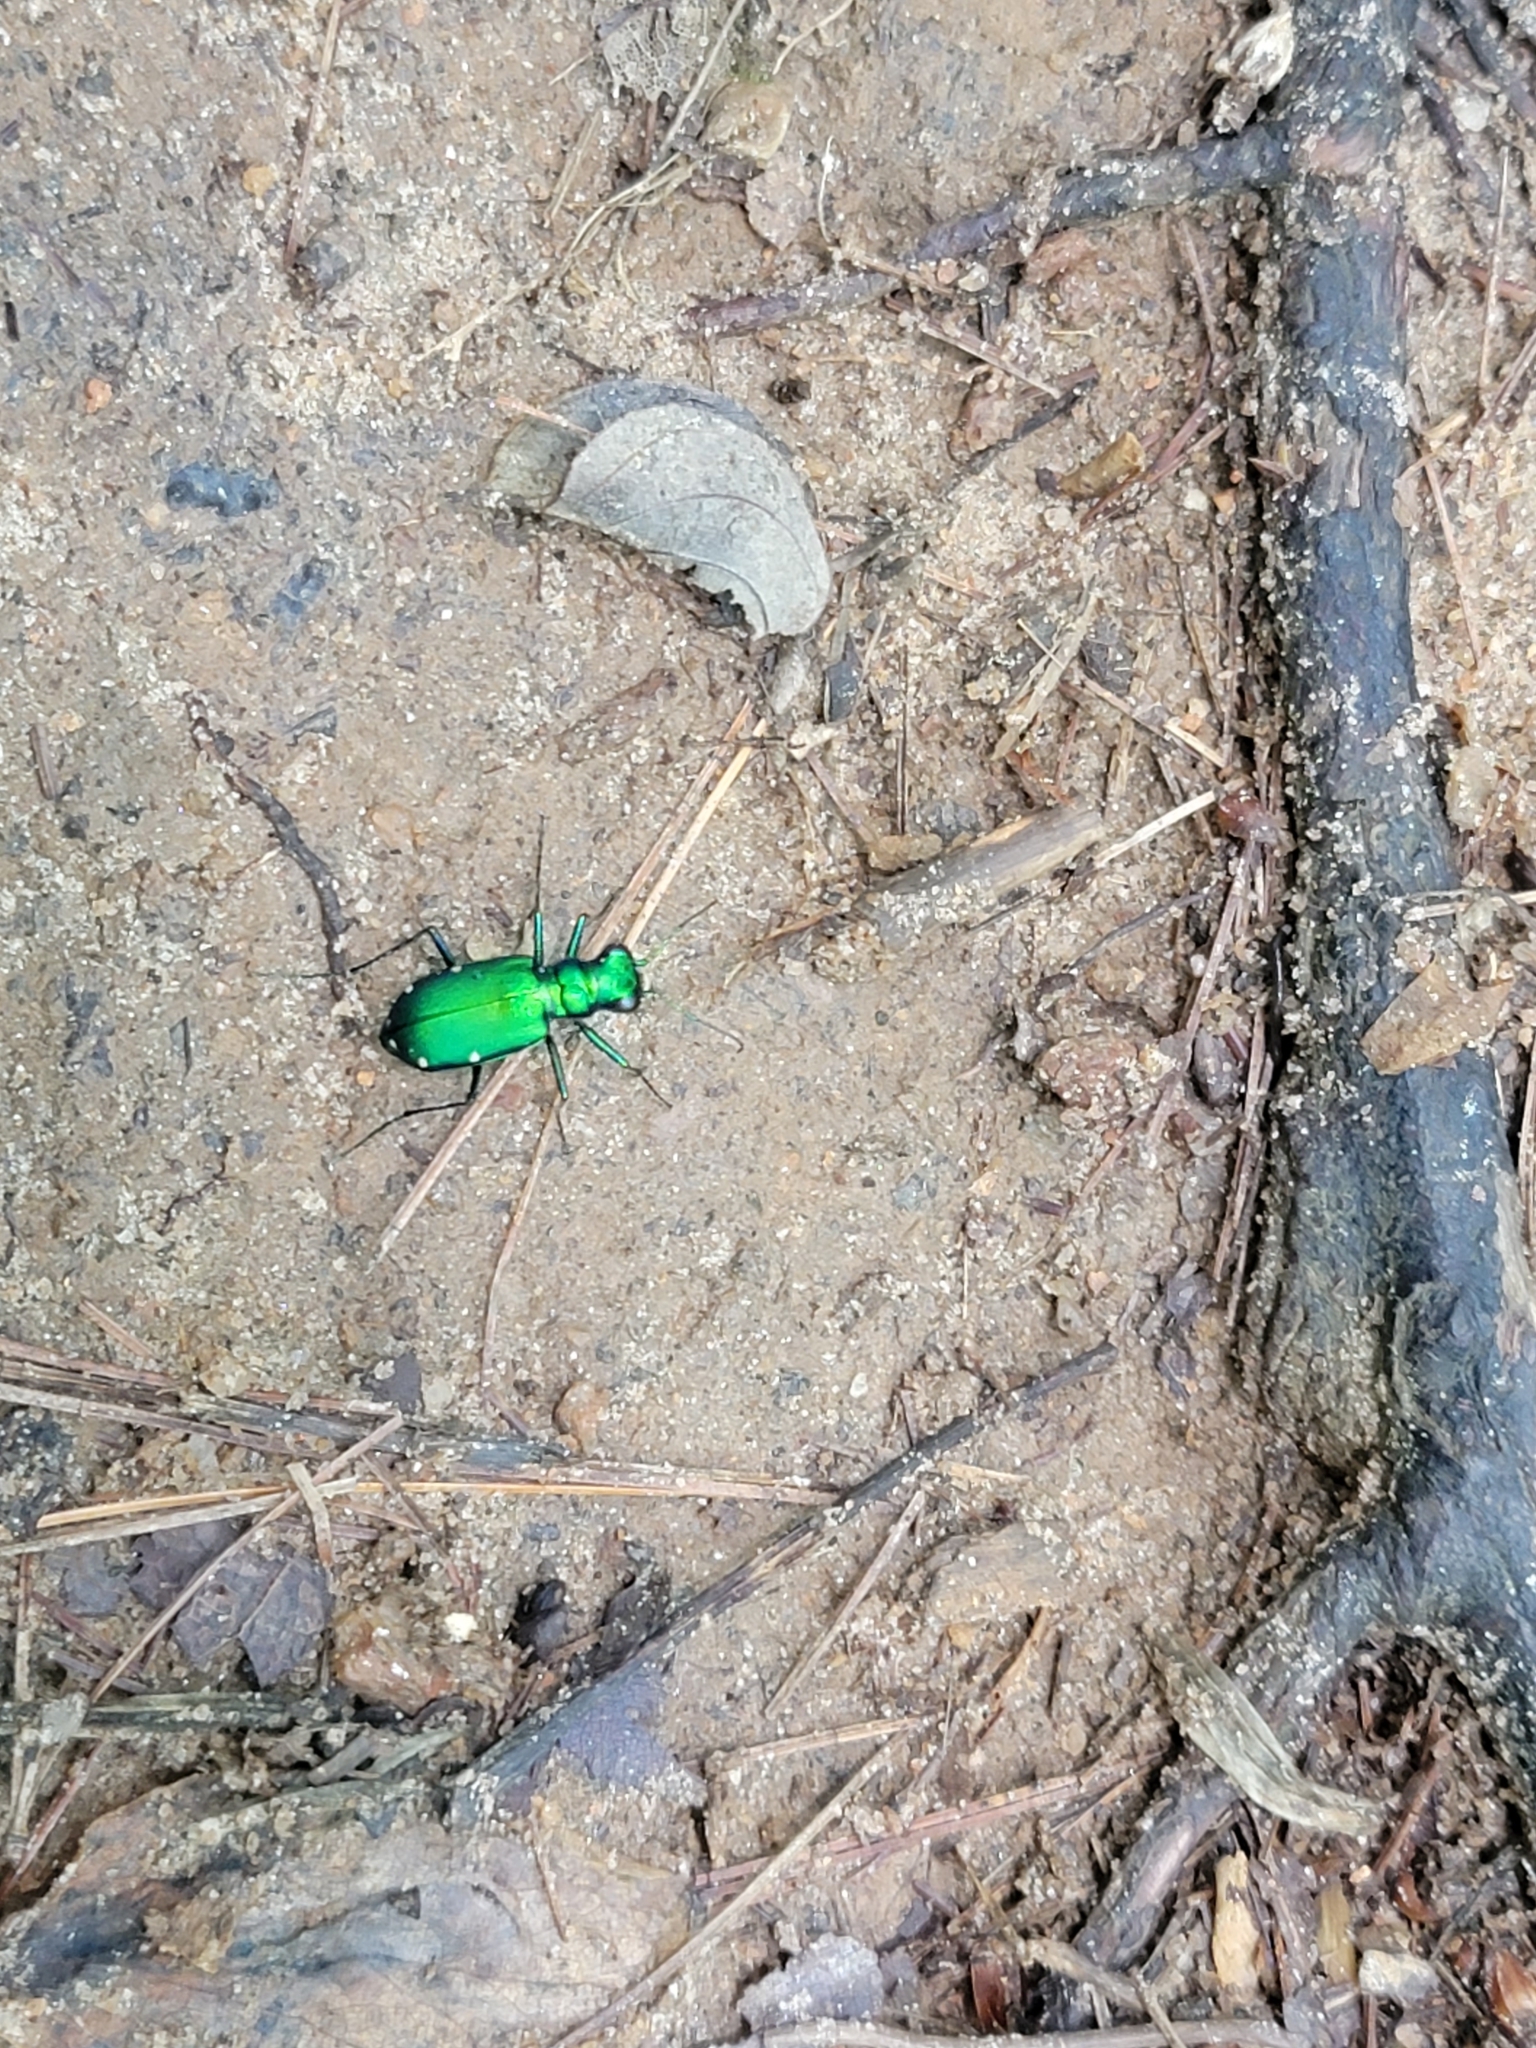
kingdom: Animalia
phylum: Arthropoda
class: Insecta
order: Coleoptera
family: Carabidae
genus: Cicindela
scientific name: Cicindela sexguttata
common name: Six-spotted tiger beetle
